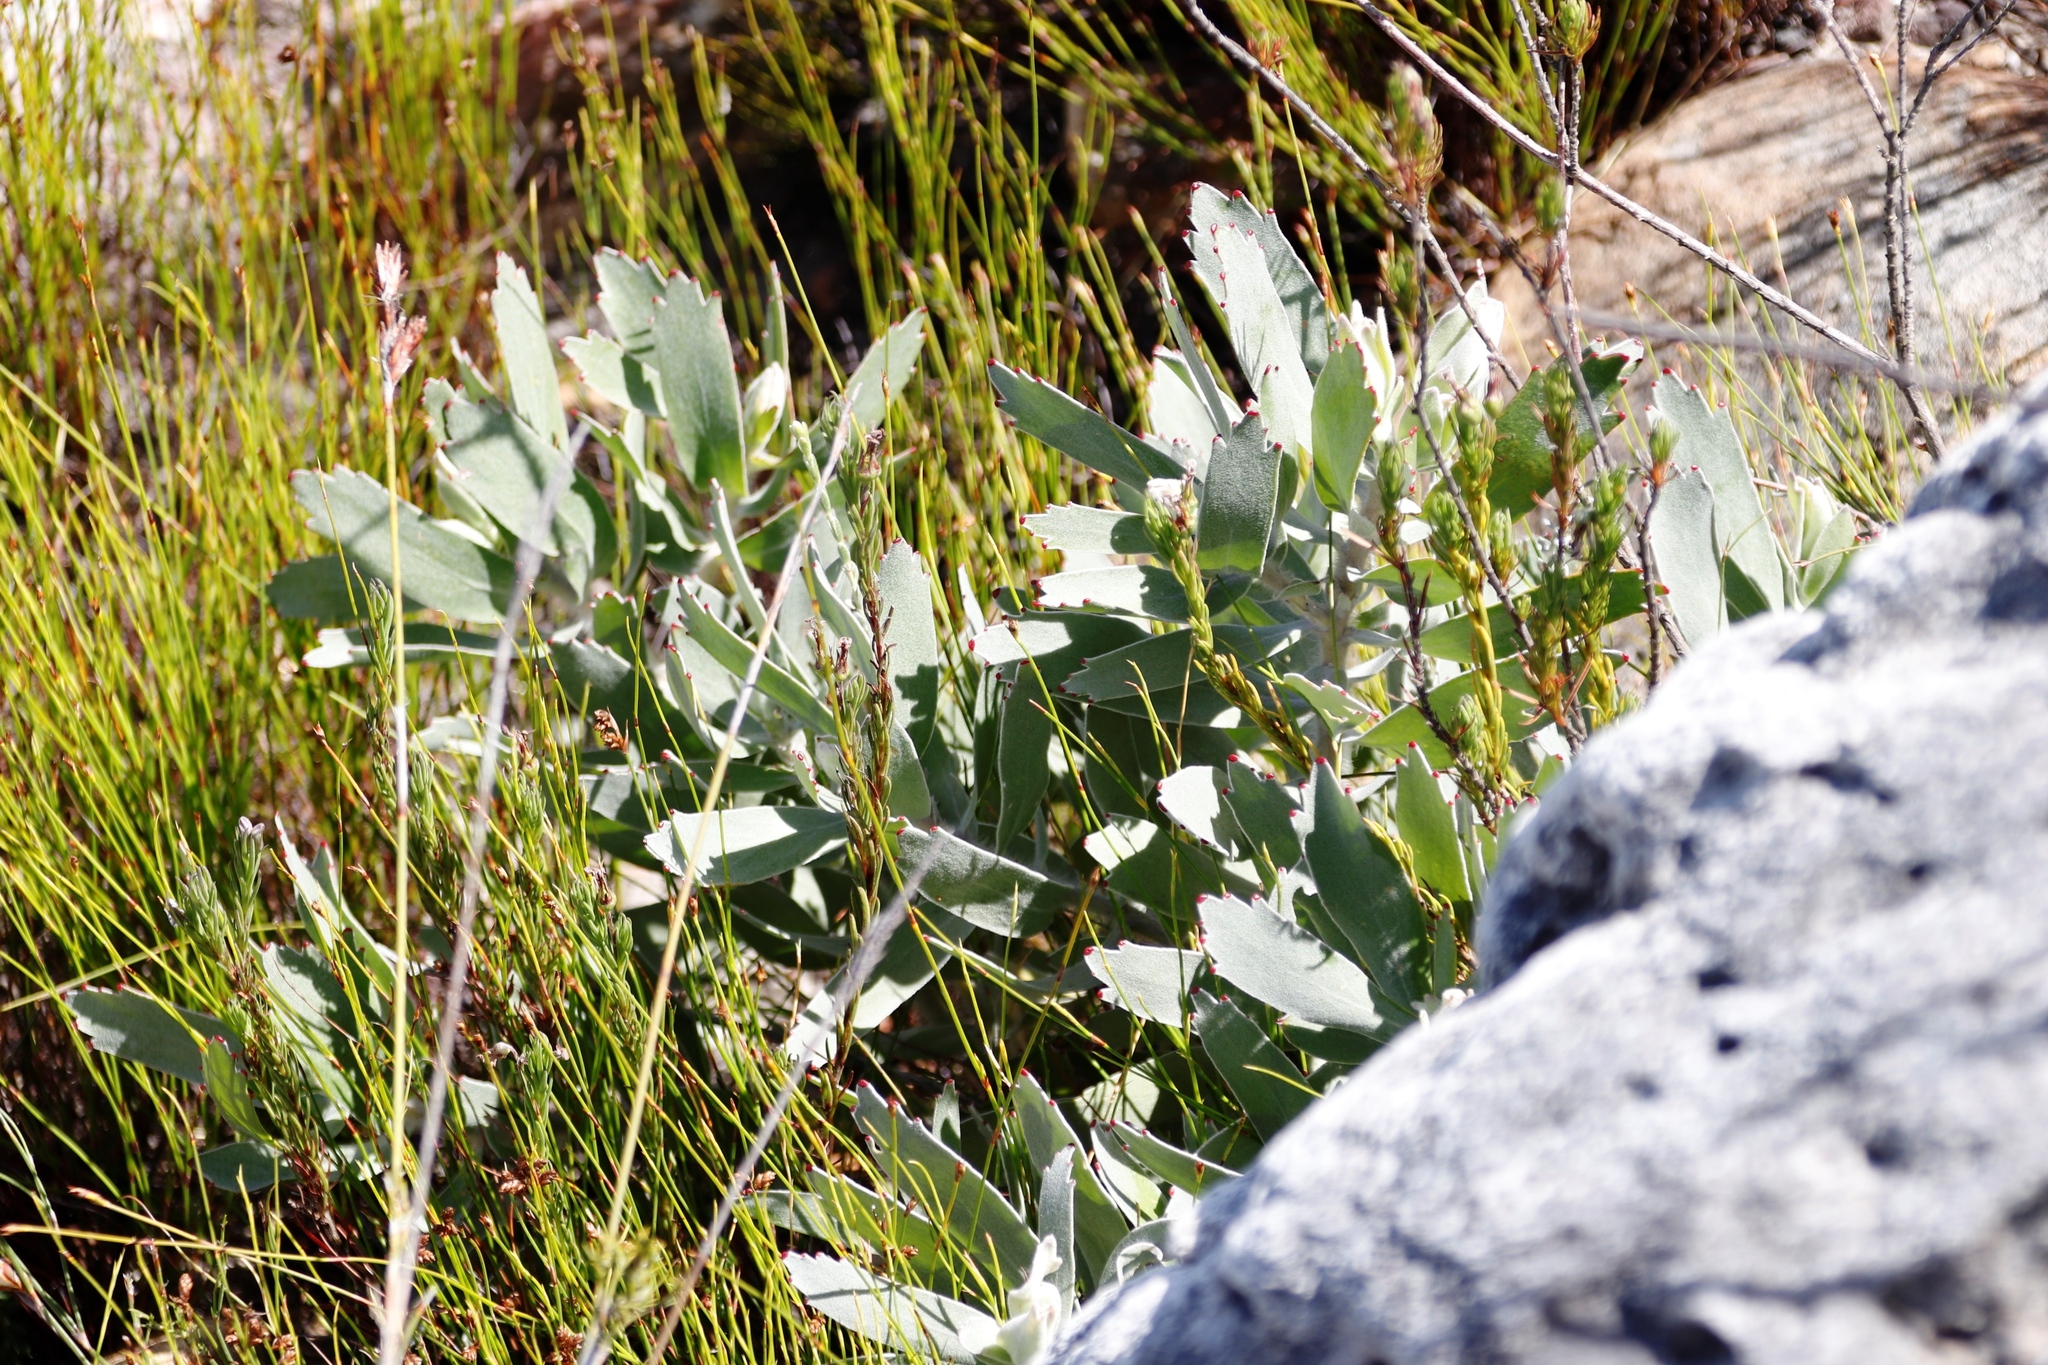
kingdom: Plantae
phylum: Tracheophyta
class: Magnoliopsida
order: Proteales
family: Proteaceae
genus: Leucospermum
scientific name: Leucospermum cordifolium
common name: Red pincushion-protea
